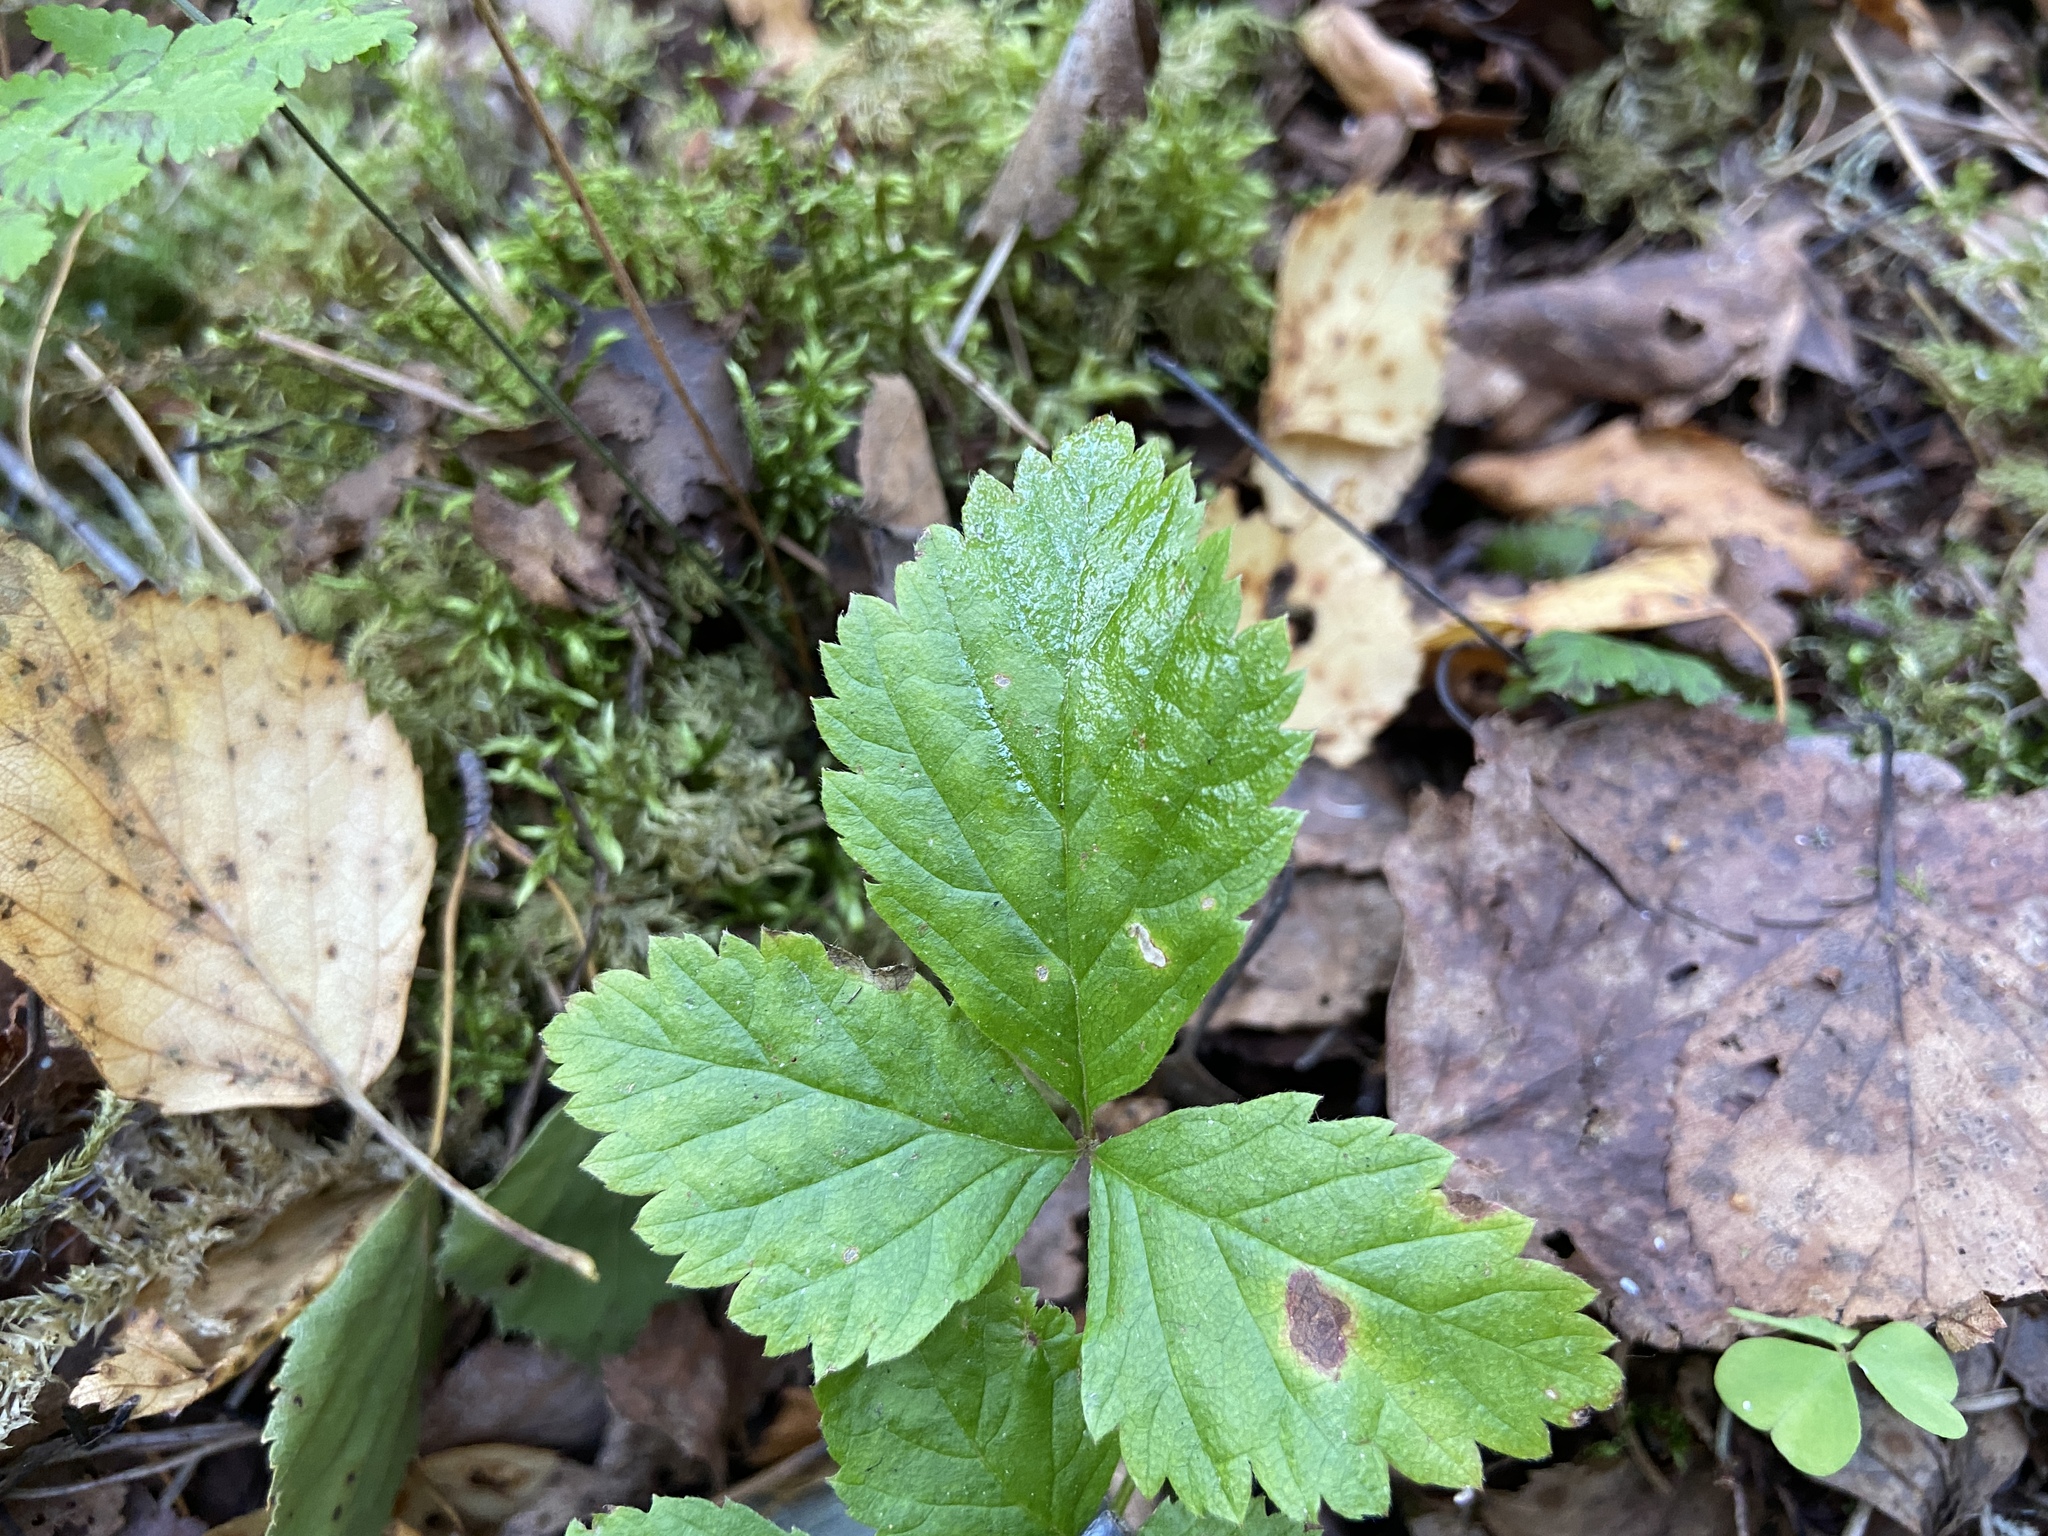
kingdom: Plantae
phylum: Tracheophyta
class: Magnoliopsida
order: Rosales
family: Rosaceae
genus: Rubus
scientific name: Rubus saxatilis
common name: Stone bramble
